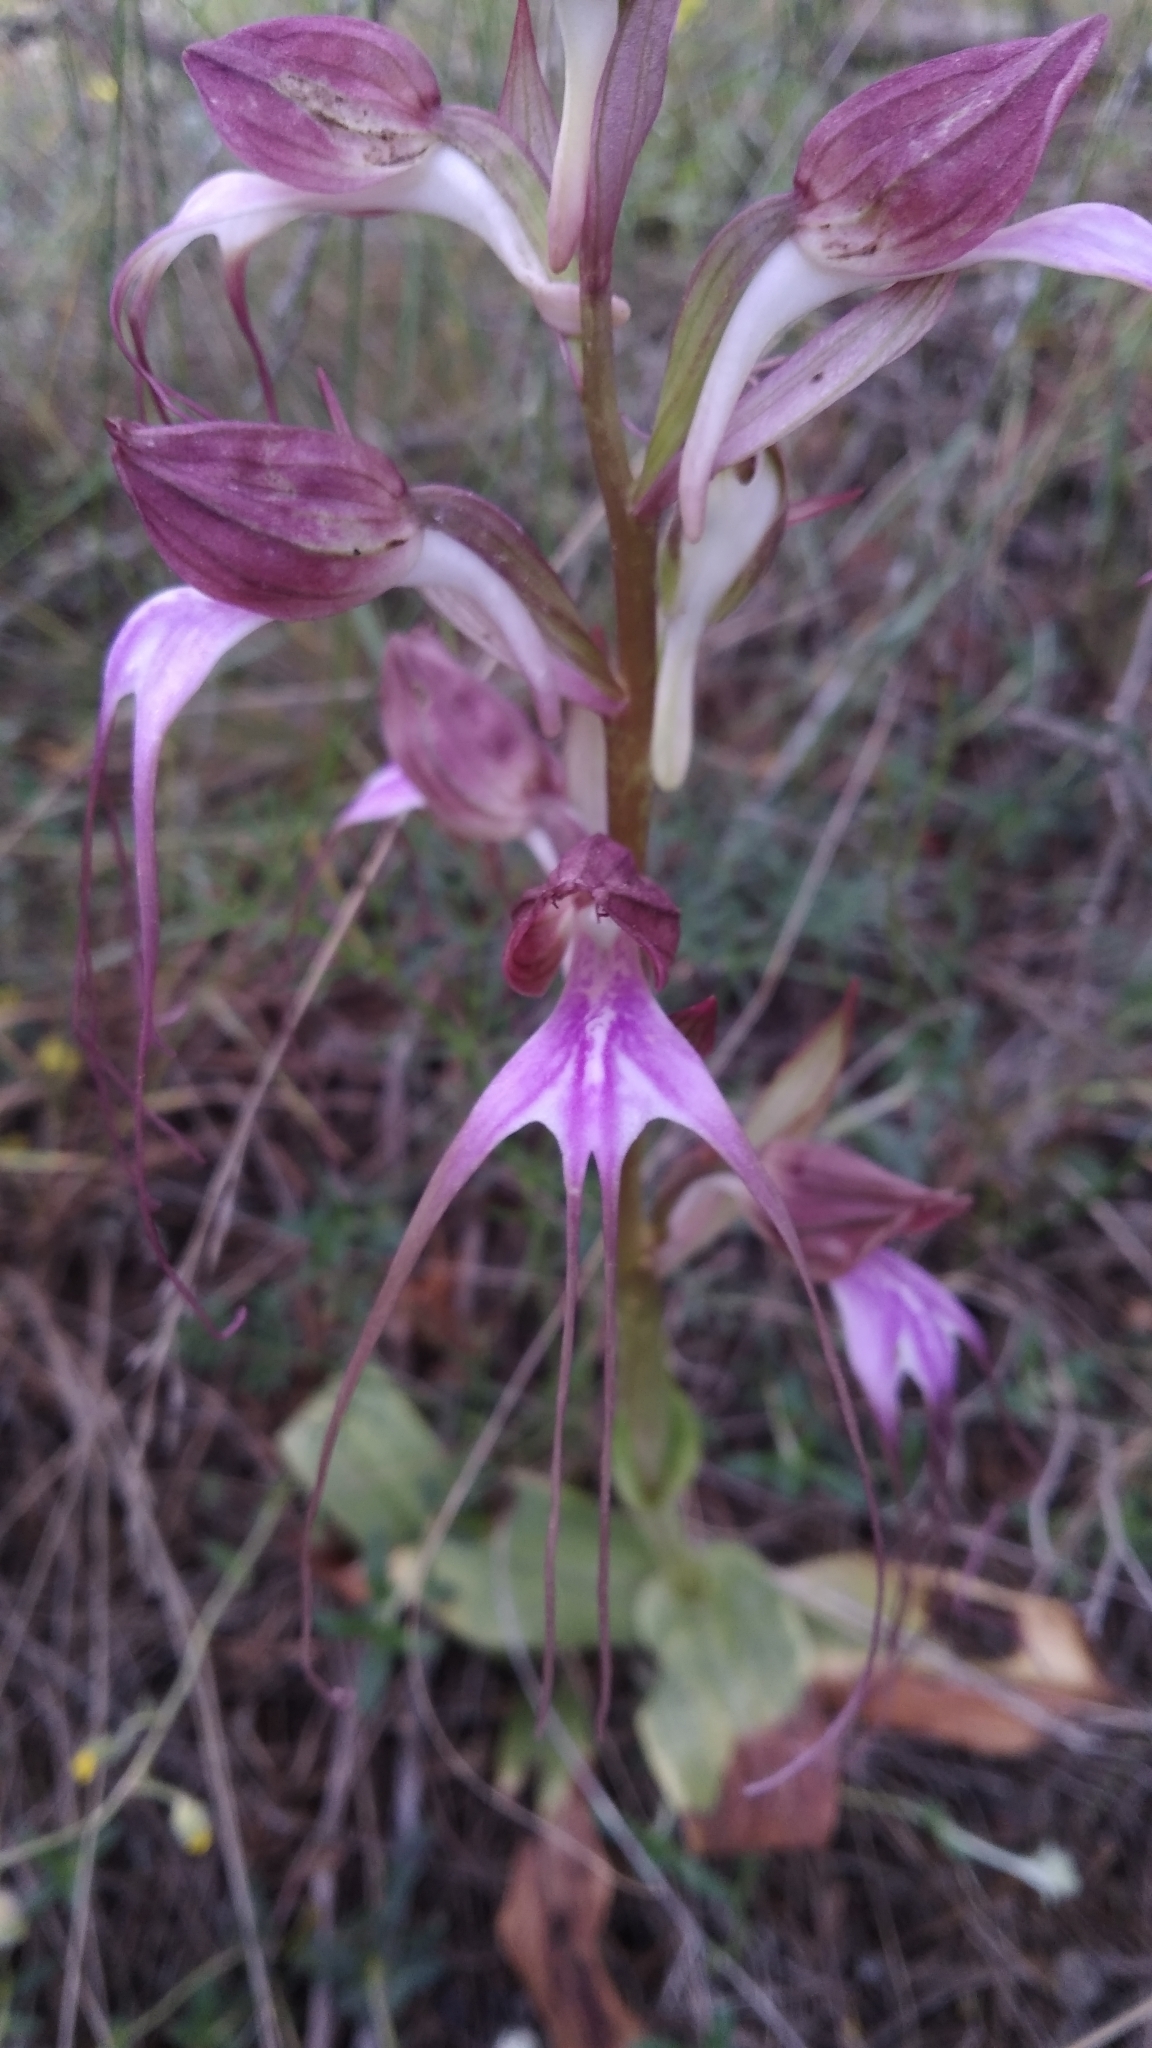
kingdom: Plantae
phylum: Tracheophyta
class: Liliopsida
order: Asparagales
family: Orchidaceae
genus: Himantoglossum
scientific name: Himantoglossum comperianum
